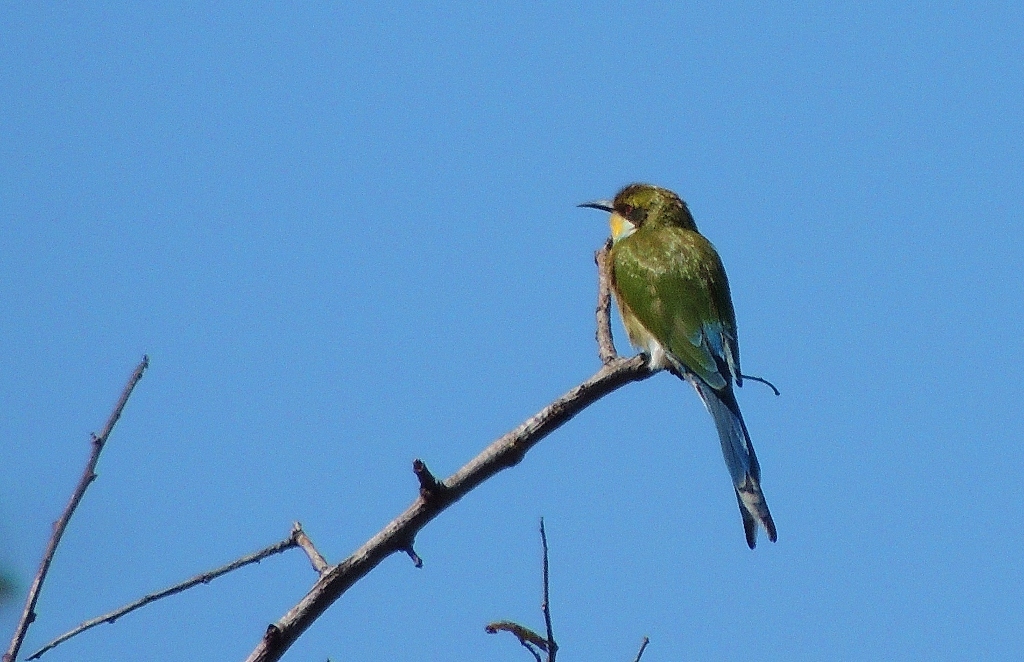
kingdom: Animalia
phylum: Chordata
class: Aves
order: Coraciiformes
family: Meropidae
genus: Merops
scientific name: Merops hirundineus
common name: Swallow-tailed bee-eater
